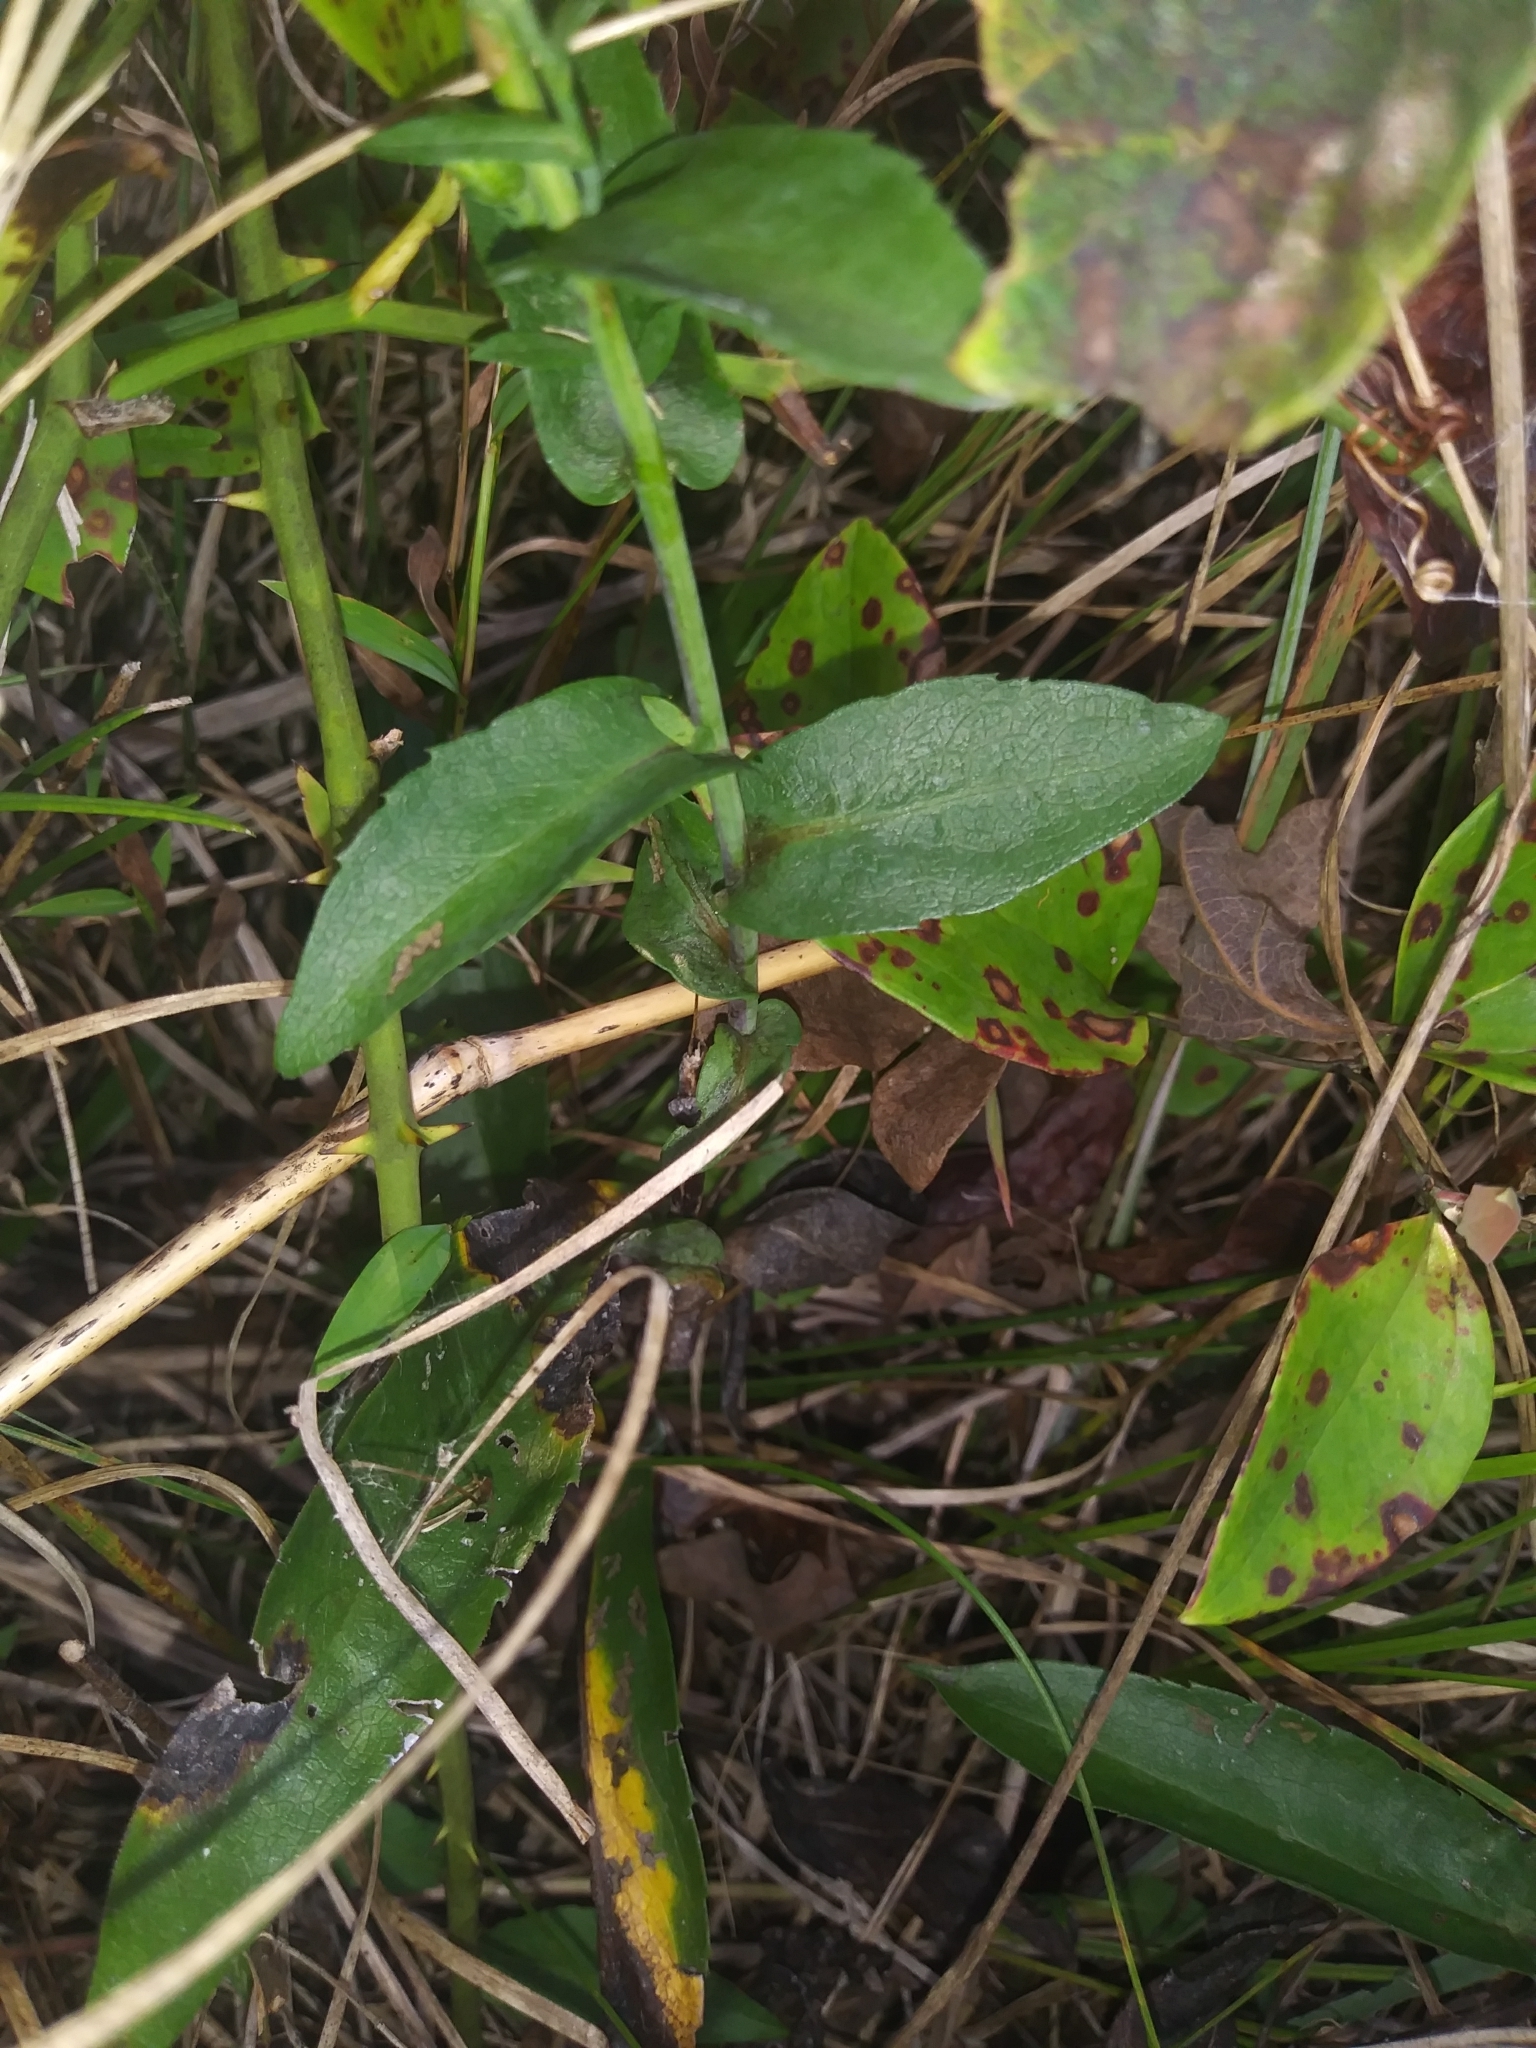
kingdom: Plantae
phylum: Tracheophyta
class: Magnoliopsida
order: Asterales
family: Asteraceae
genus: Symphyotrichum
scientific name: Symphyotrichum laeve
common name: Glaucous aster
